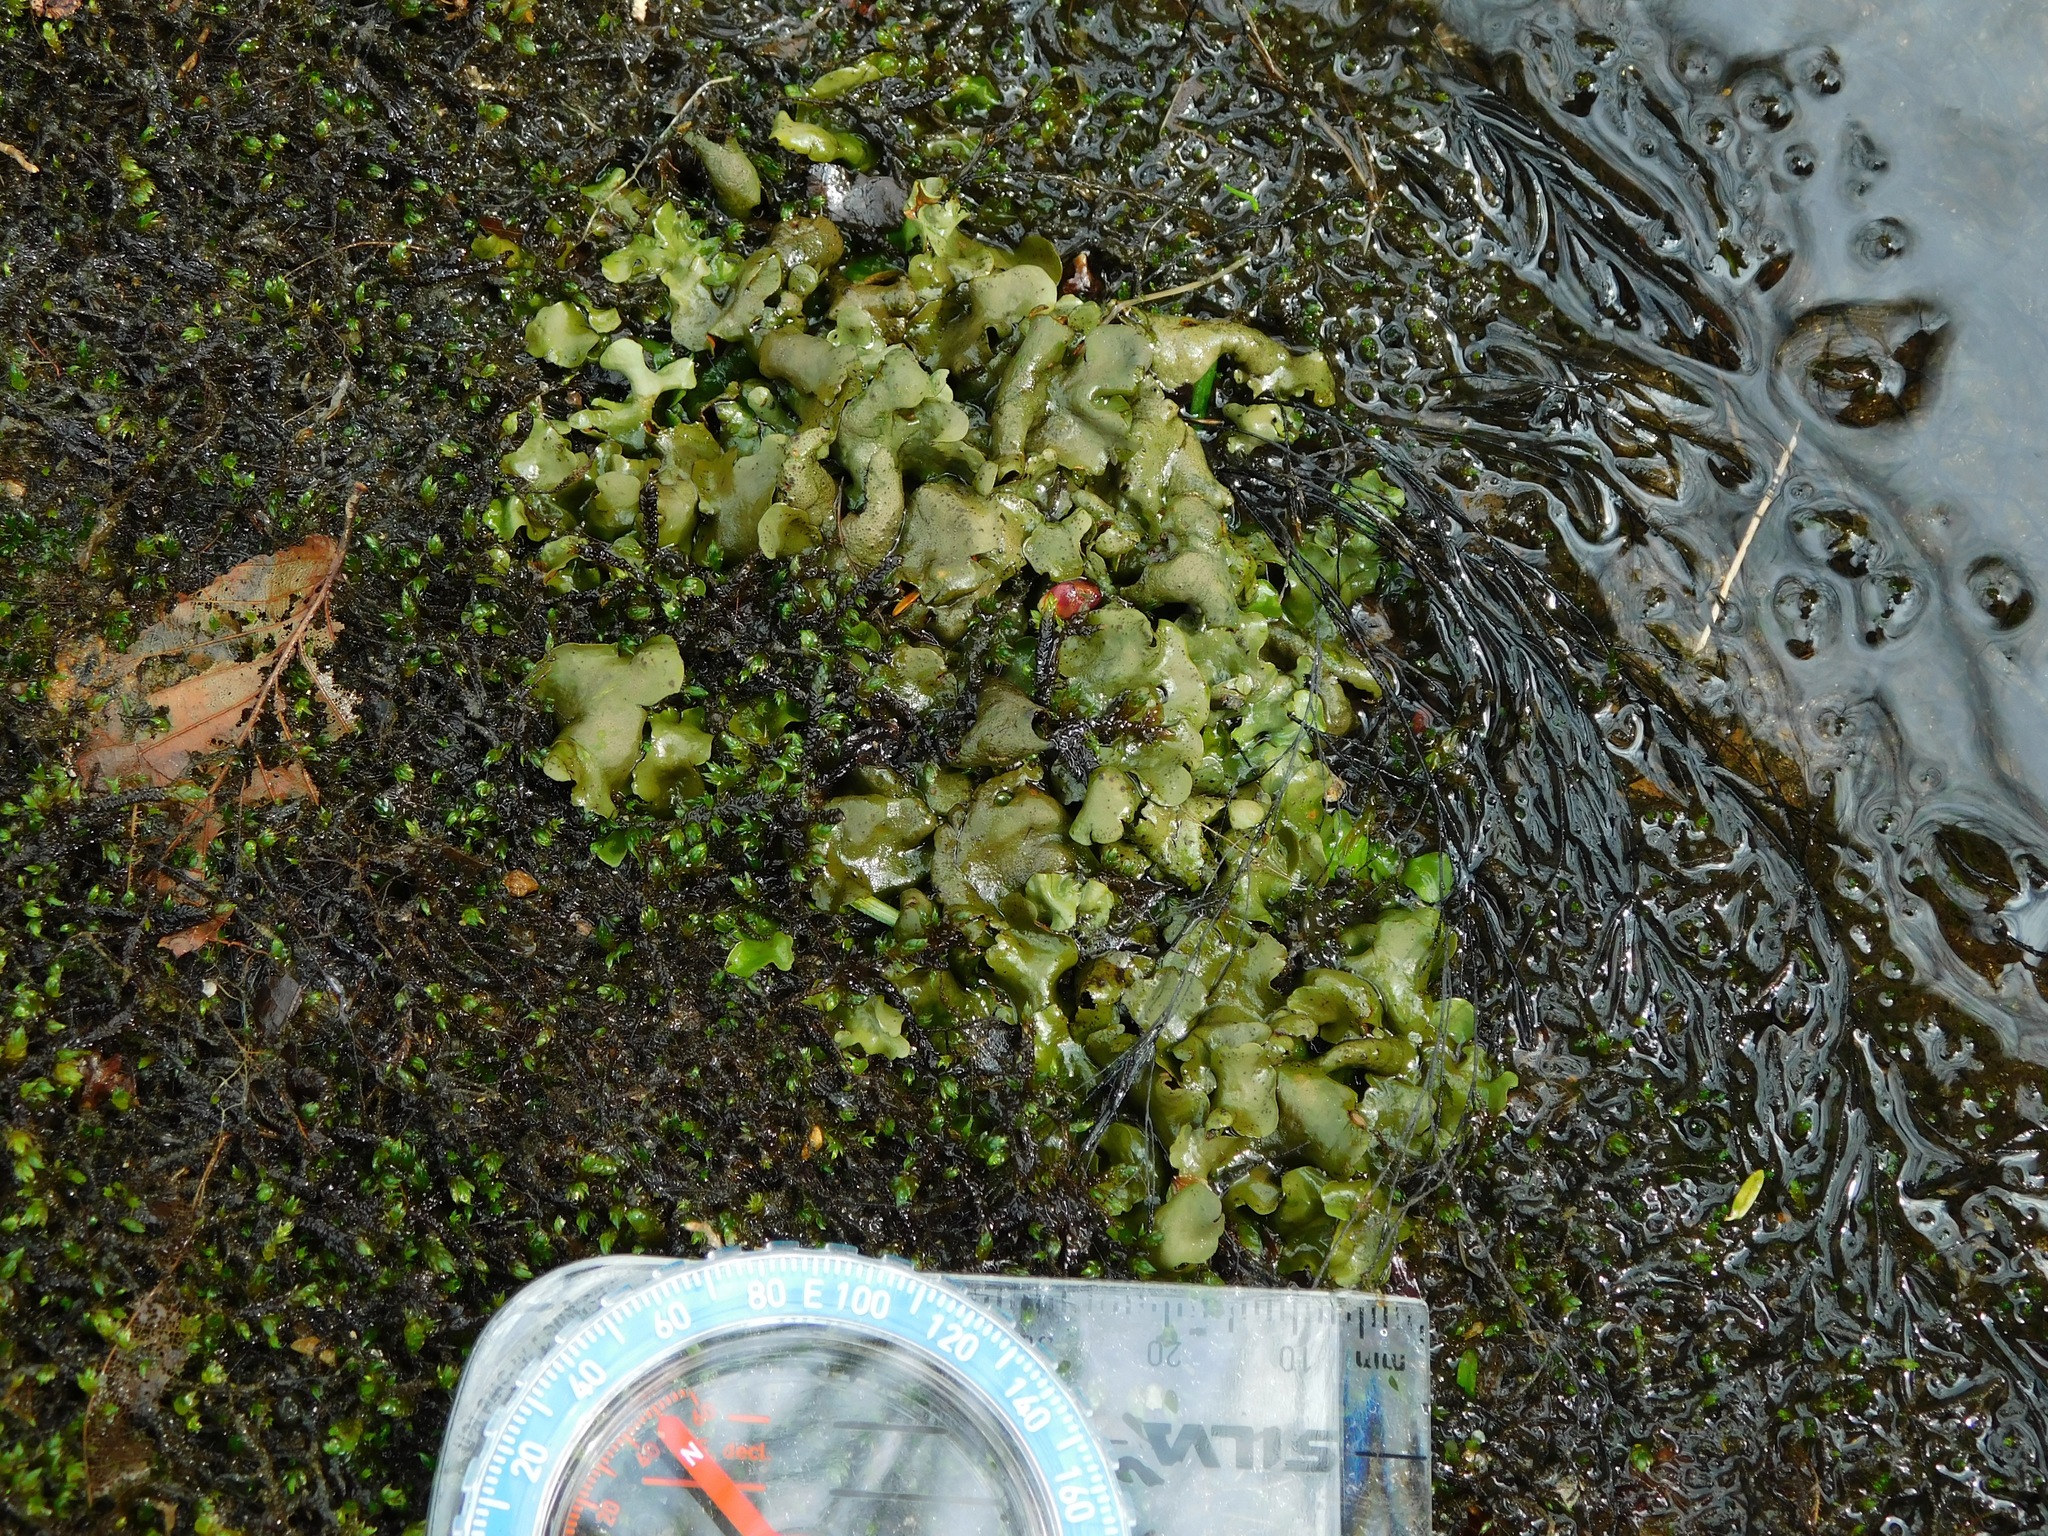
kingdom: Fungi
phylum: Ascomycota
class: Eurotiomycetes
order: Verrucariales
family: Verrucariaceae
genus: Dermatocarpon
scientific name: Dermatocarpon luridum
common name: Brook stippleback lichen
